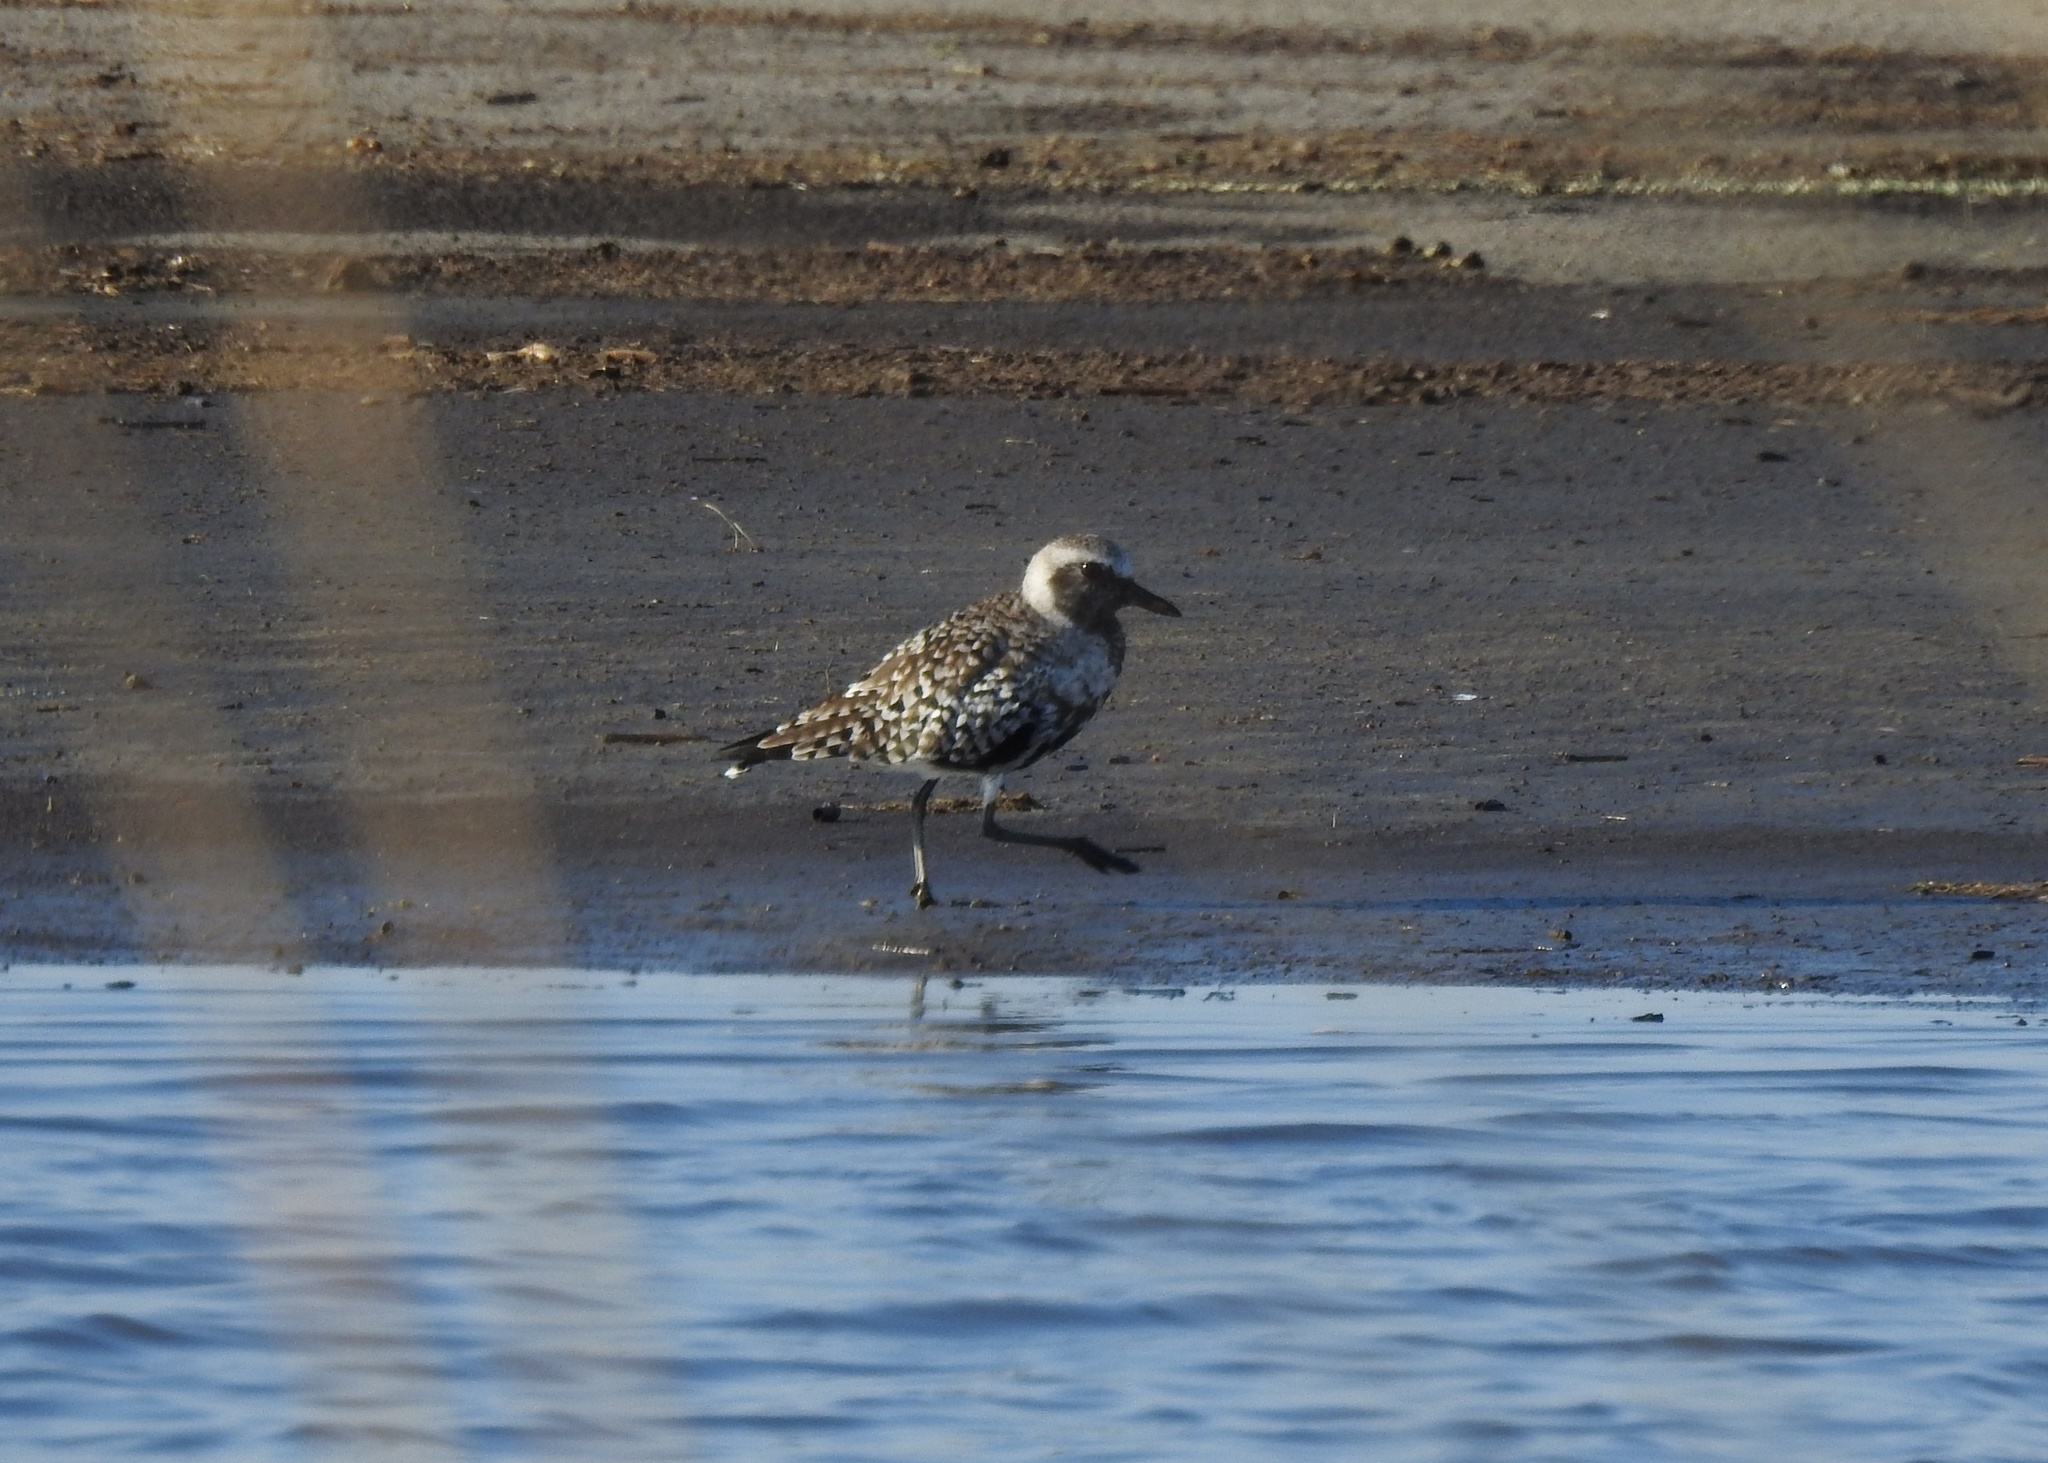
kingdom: Animalia
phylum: Chordata
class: Aves
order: Charadriiformes
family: Charadriidae
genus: Pluvialis
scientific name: Pluvialis squatarola
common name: Grey plover
